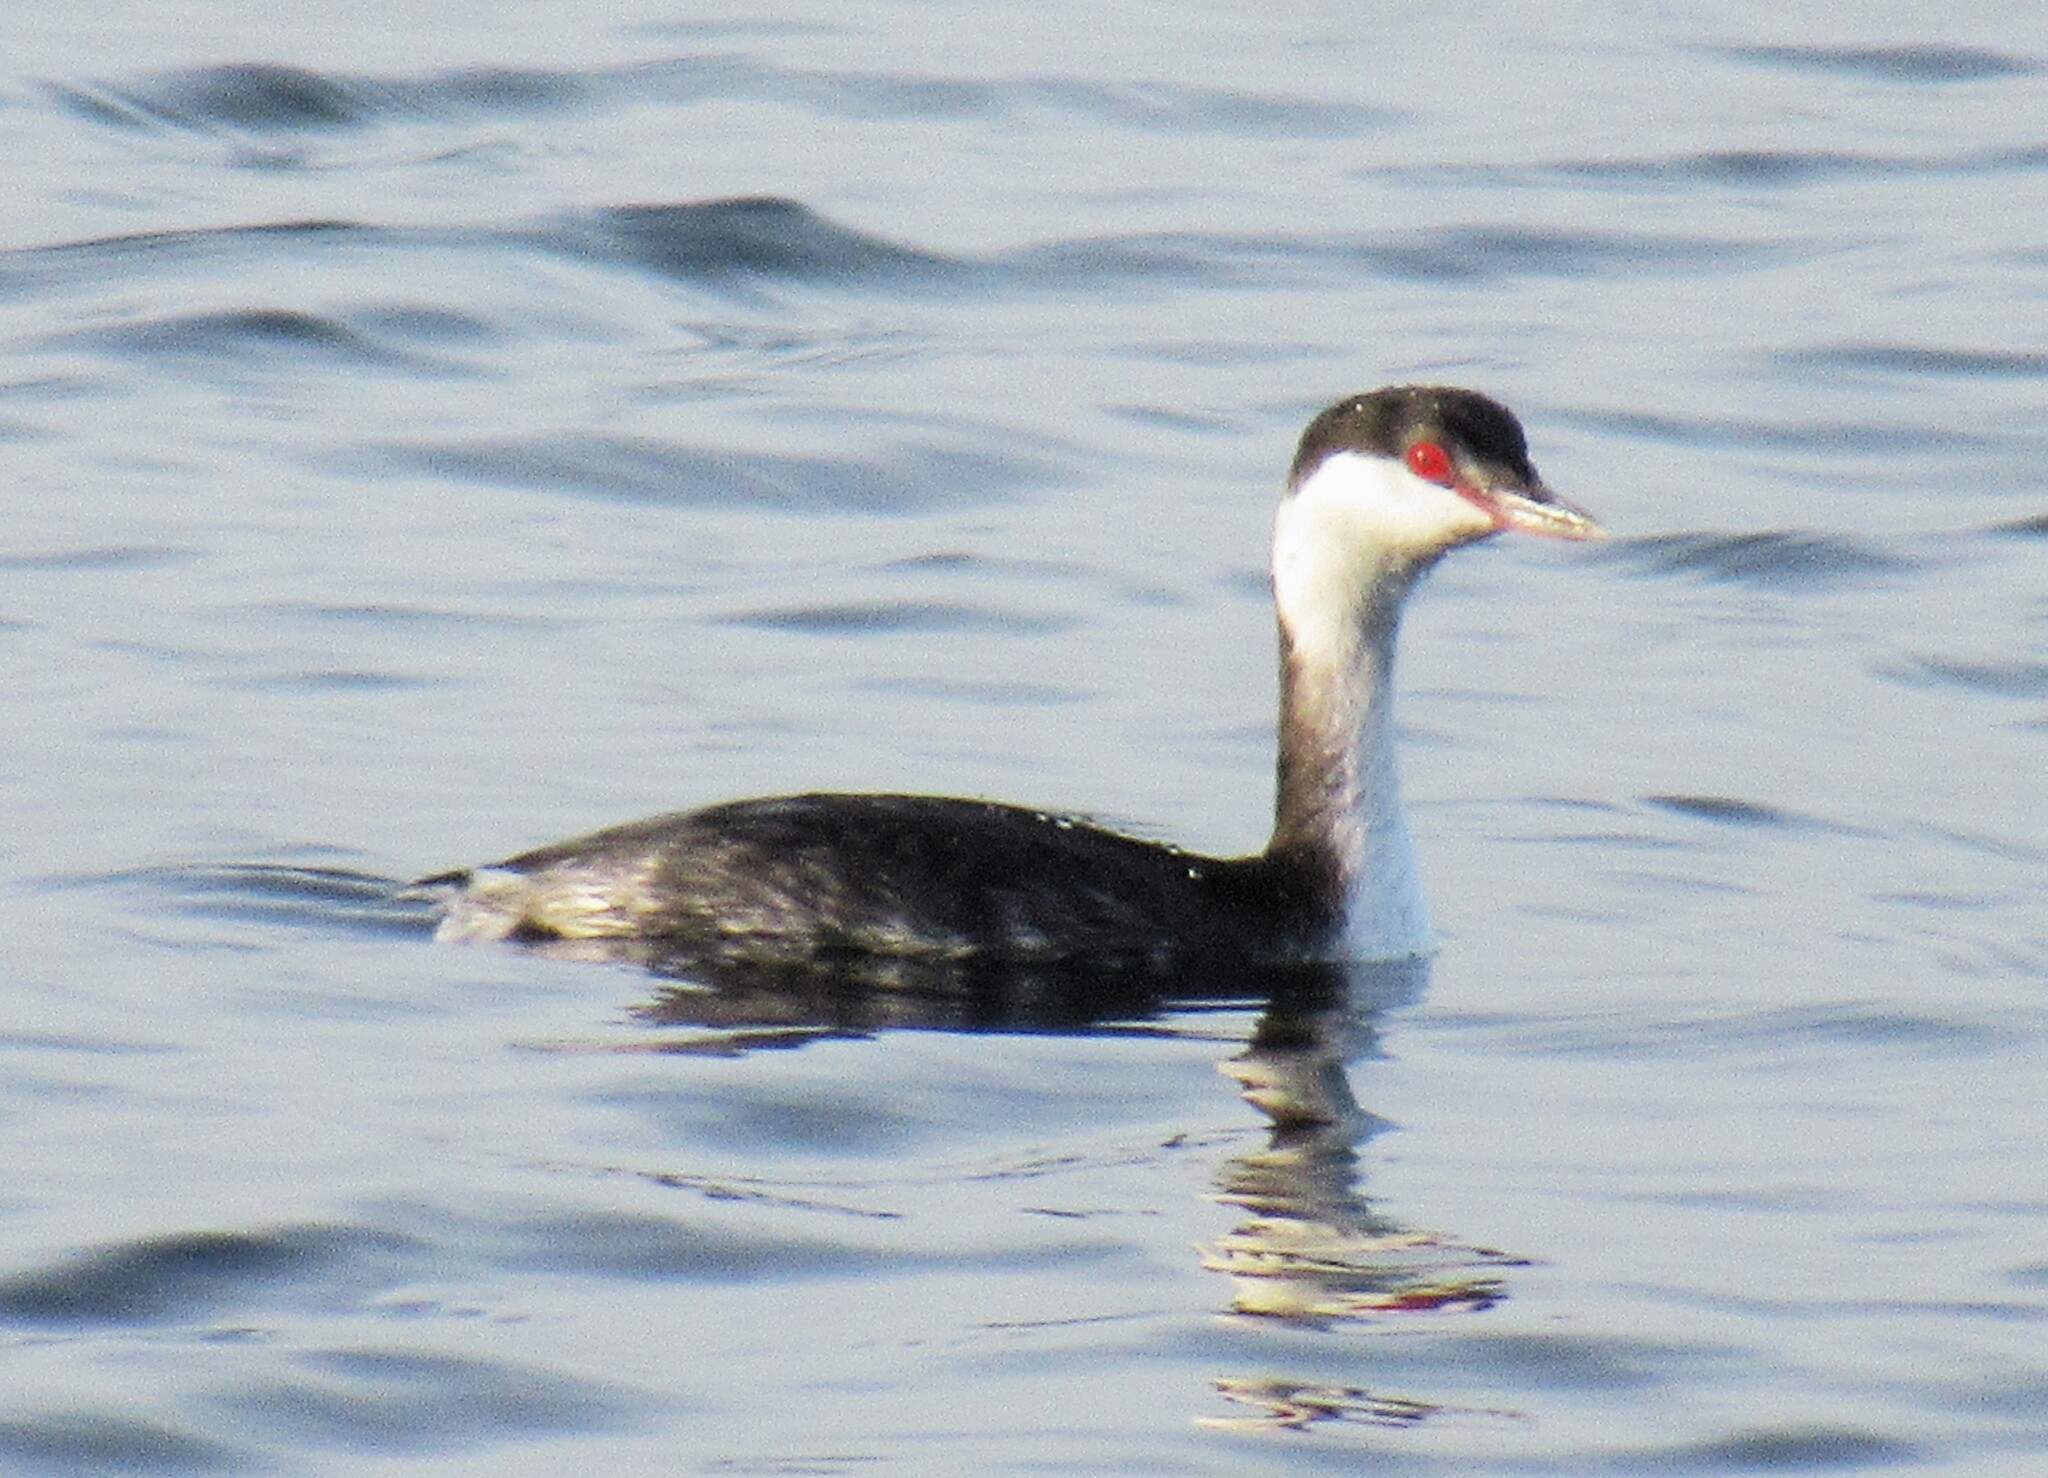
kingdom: Animalia
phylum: Chordata
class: Aves
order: Podicipediformes
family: Podicipedidae
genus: Podiceps
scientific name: Podiceps auritus
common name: Horned grebe
